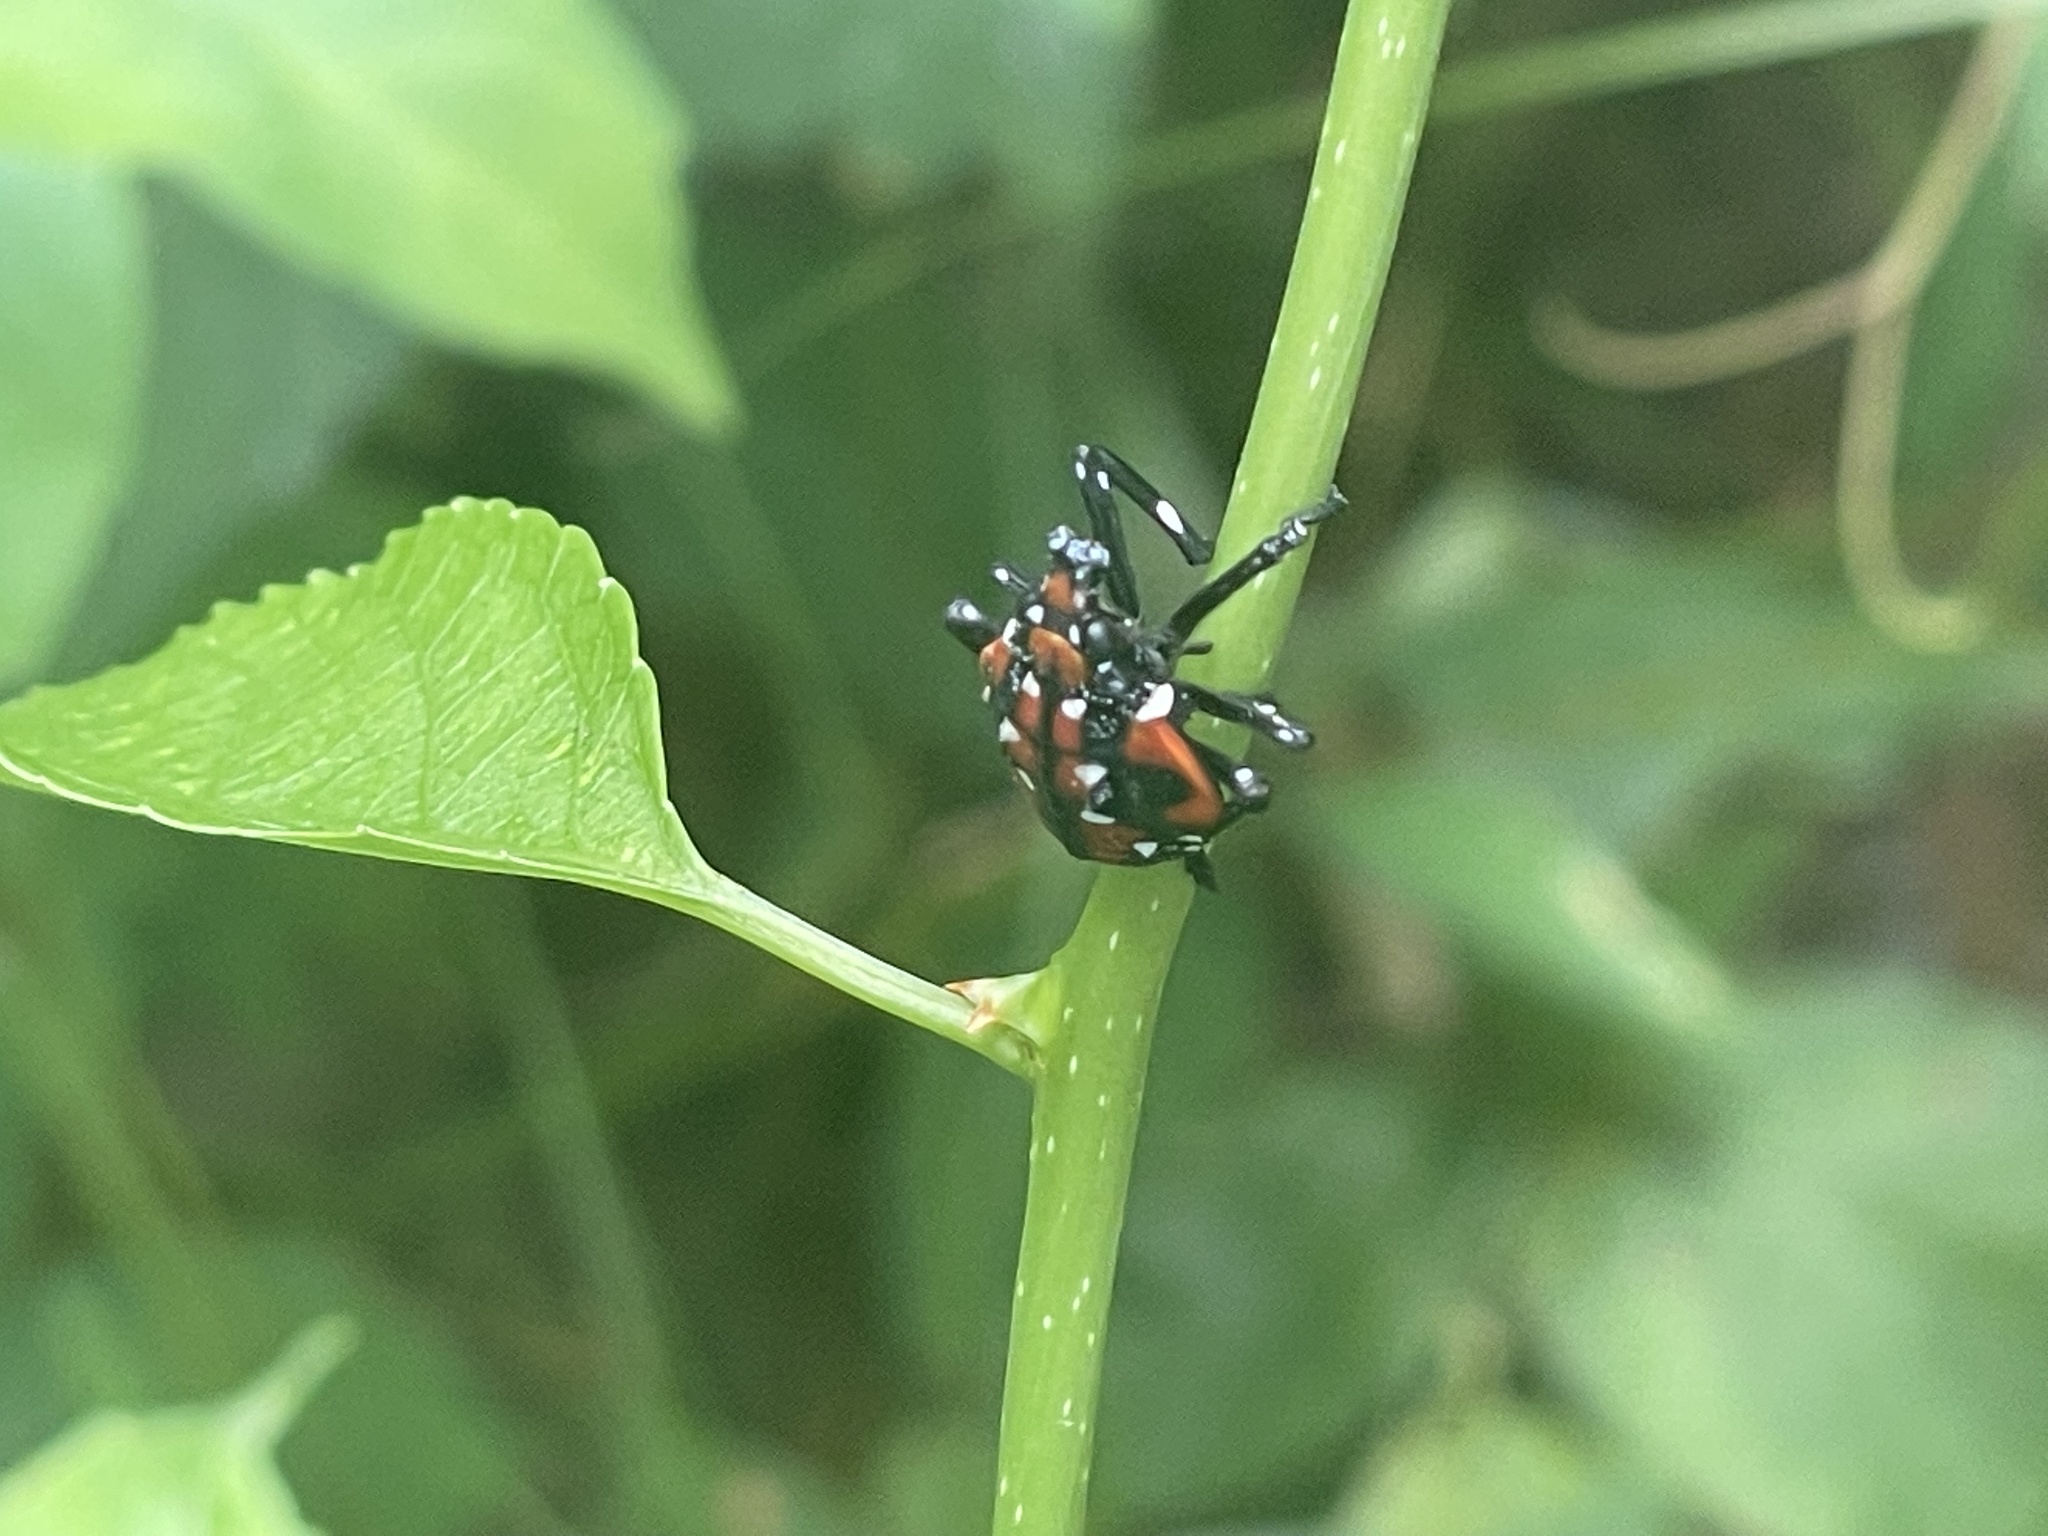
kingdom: Animalia
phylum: Arthropoda
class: Insecta
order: Hemiptera
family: Fulgoridae
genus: Lycorma
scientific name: Lycorma delicatula
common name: Spotted lanternfly
